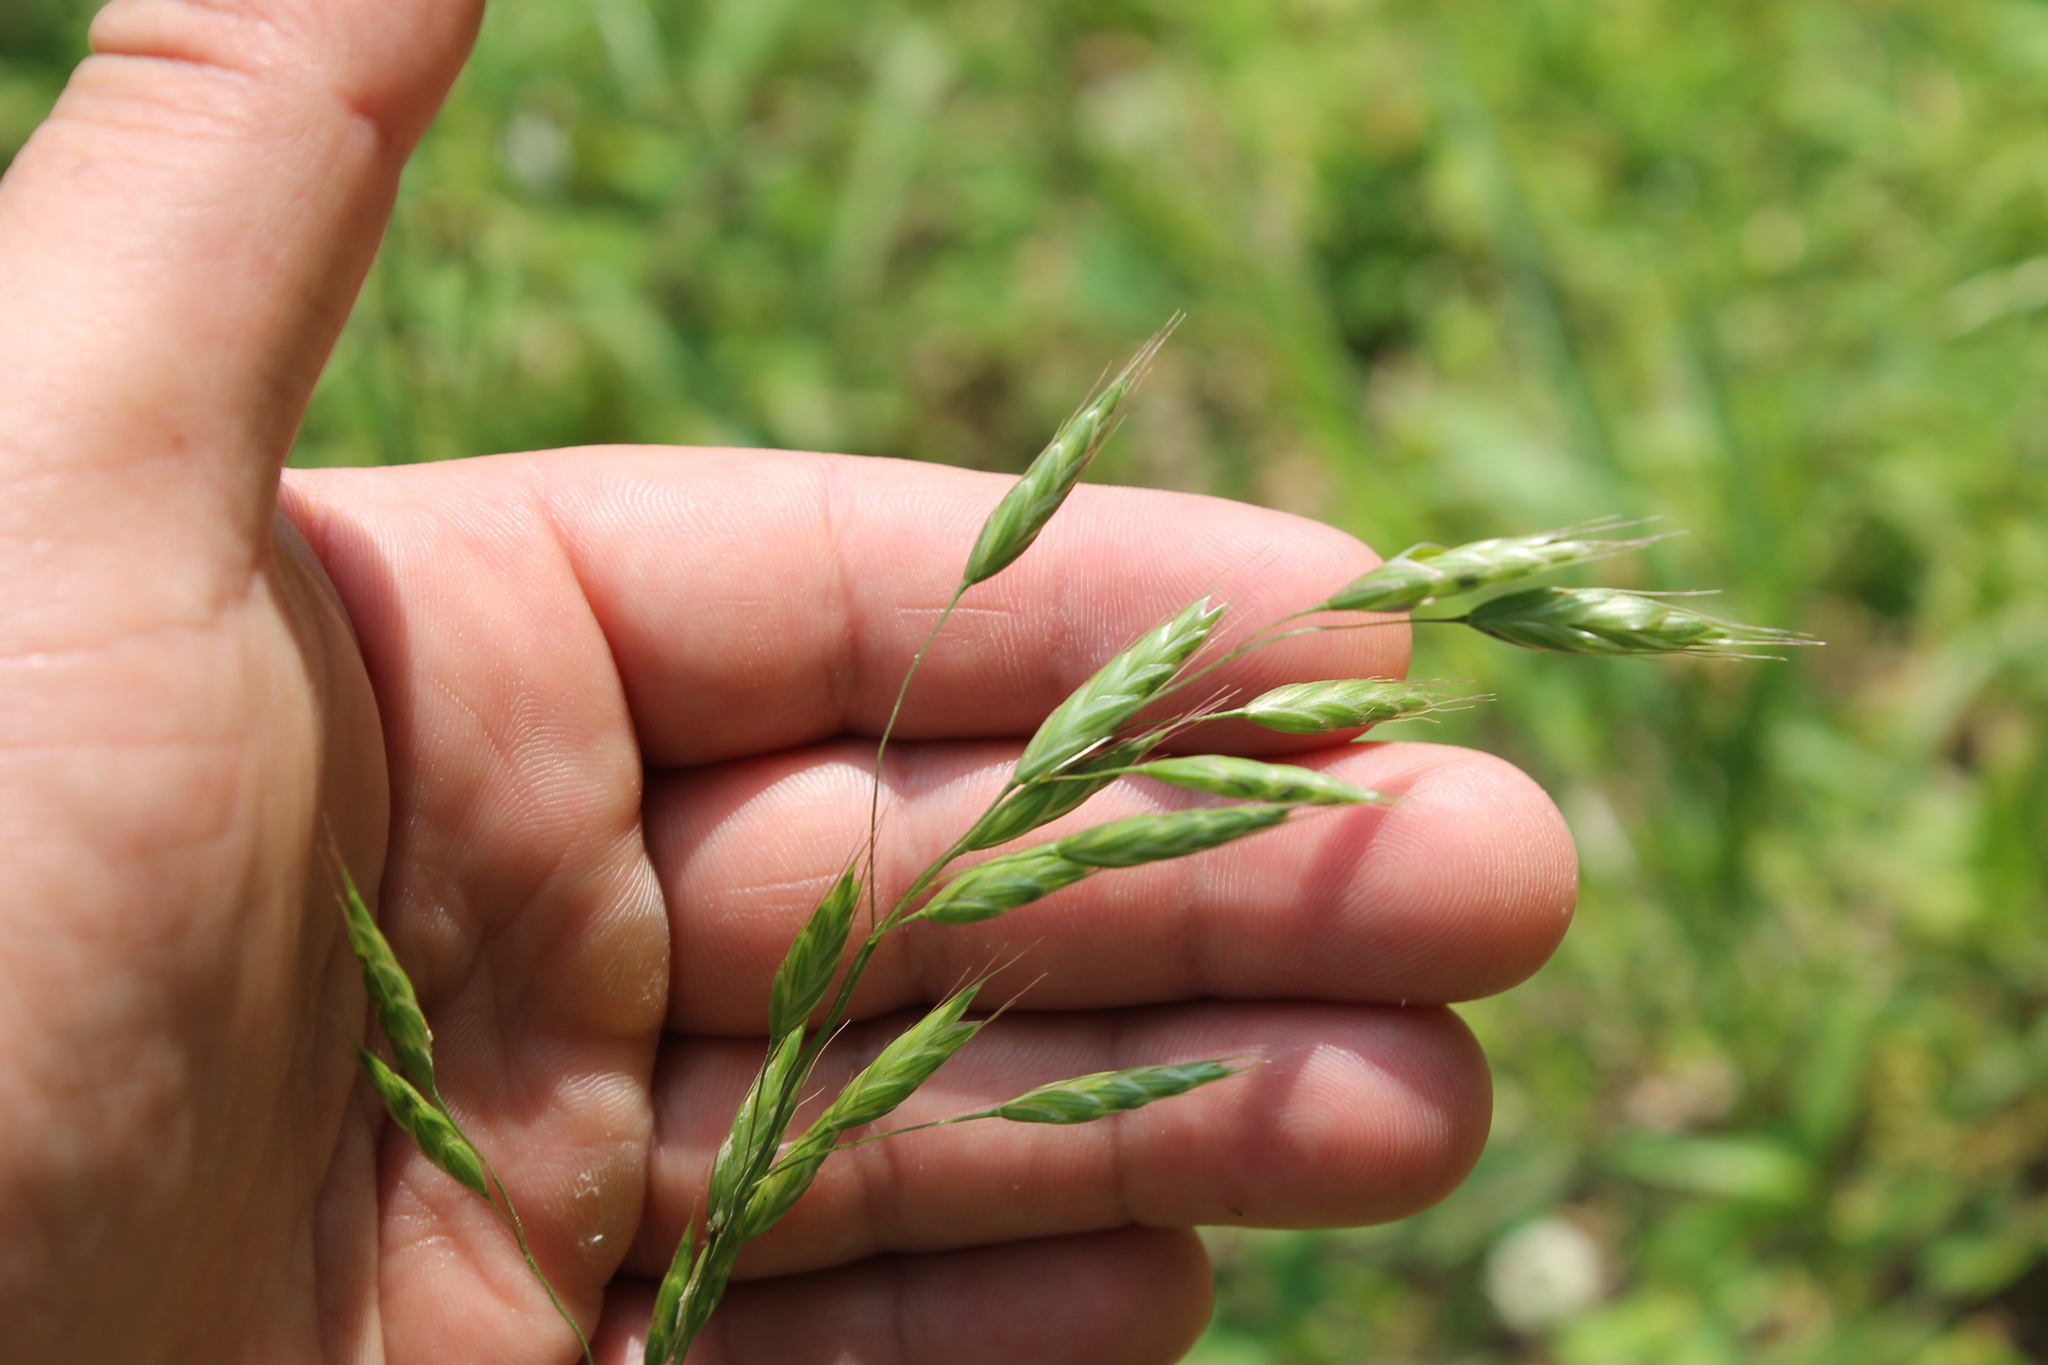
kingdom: Plantae
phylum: Tracheophyta
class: Liliopsida
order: Poales
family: Poaceae
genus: Bromus
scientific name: Bromus commutatus
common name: Meadow brome
